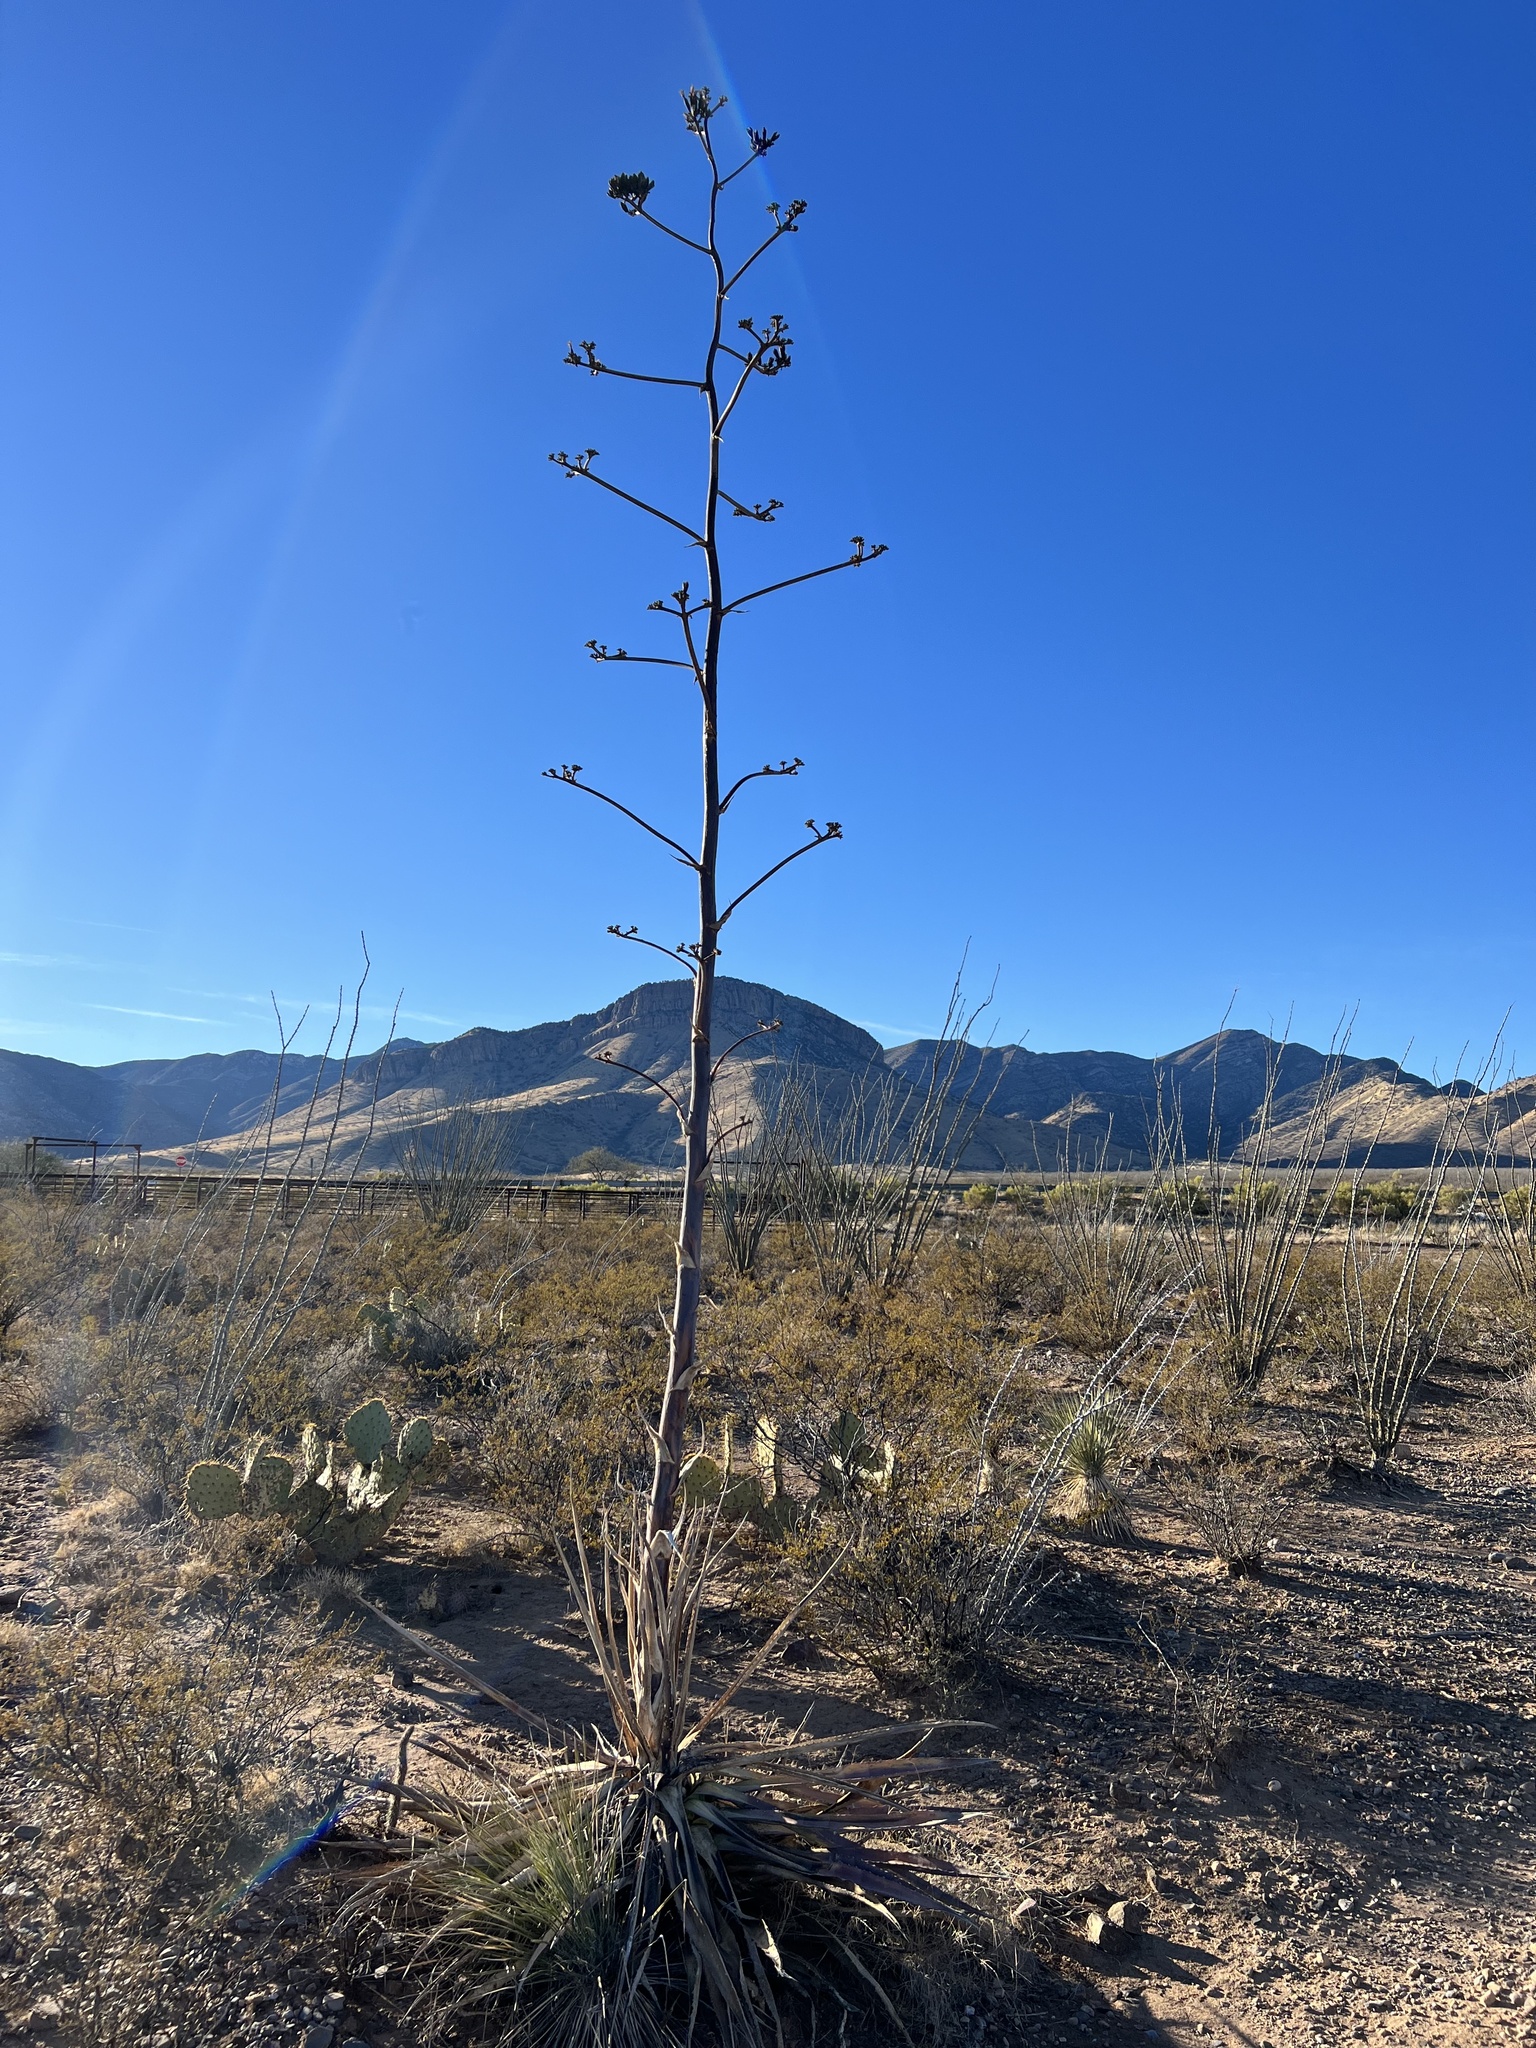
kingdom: Plantae
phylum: Tracheophyta
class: Liliopsida
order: Asparagales
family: Asparagaceae
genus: Agave
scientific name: Agave palmeri
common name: Palmer agave
